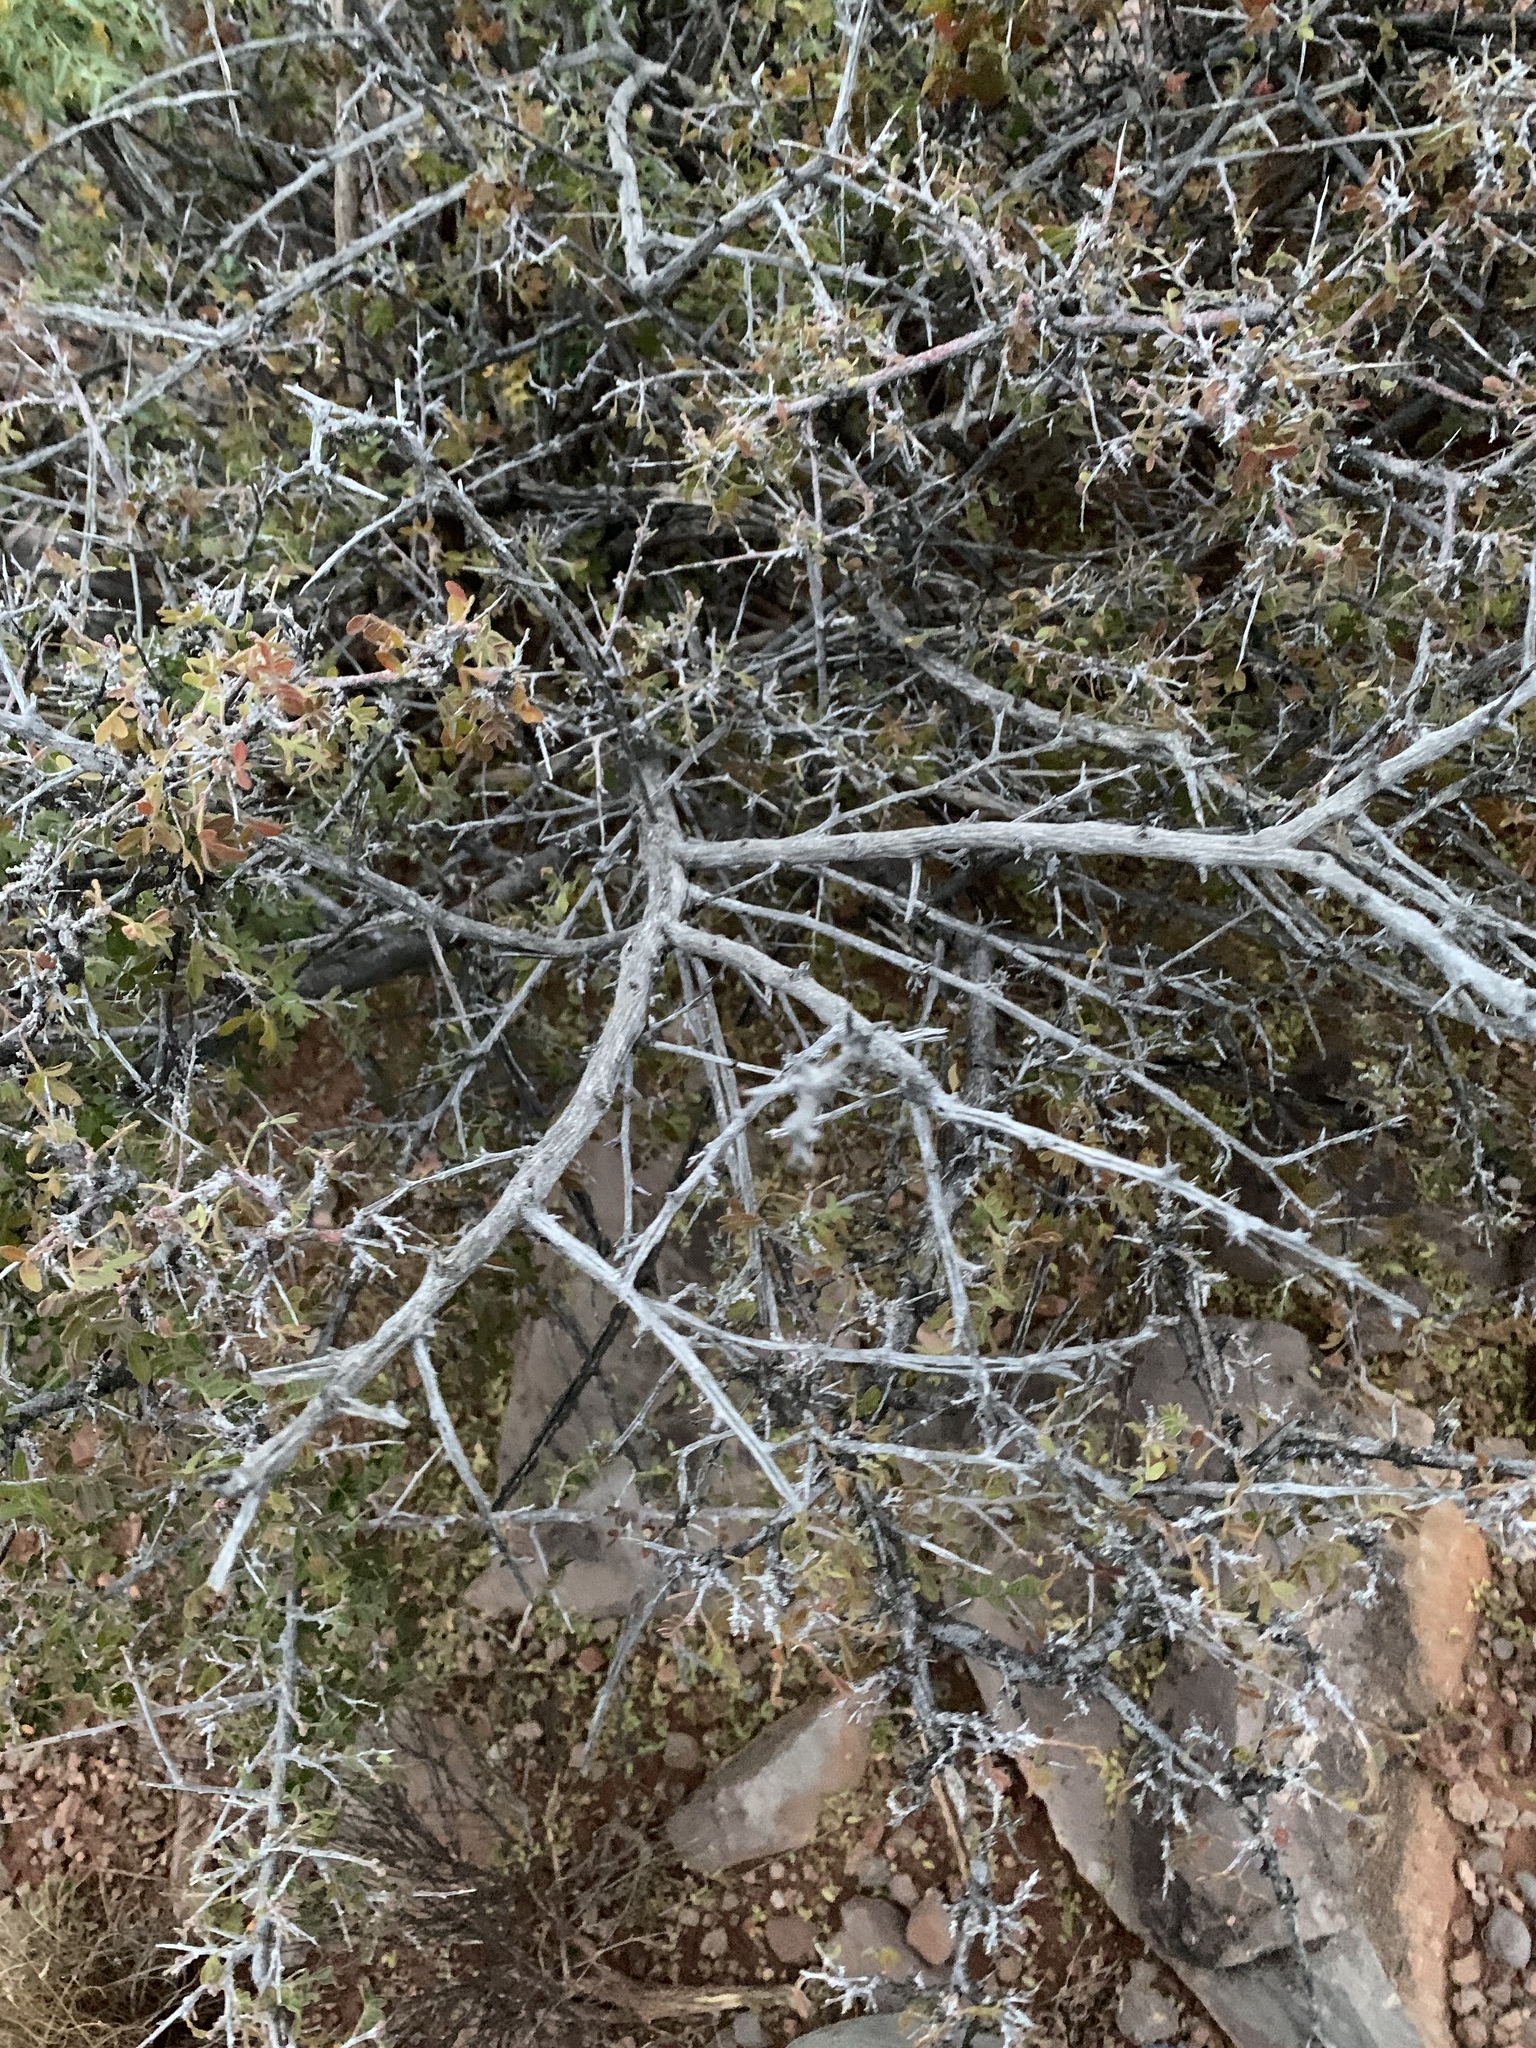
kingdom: Plantae
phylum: Tracheophyta
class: Magnoliopsida
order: Sapindales
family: Anacardiaceae
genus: Rhus
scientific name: Rhus microphylla
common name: Desert sumac
